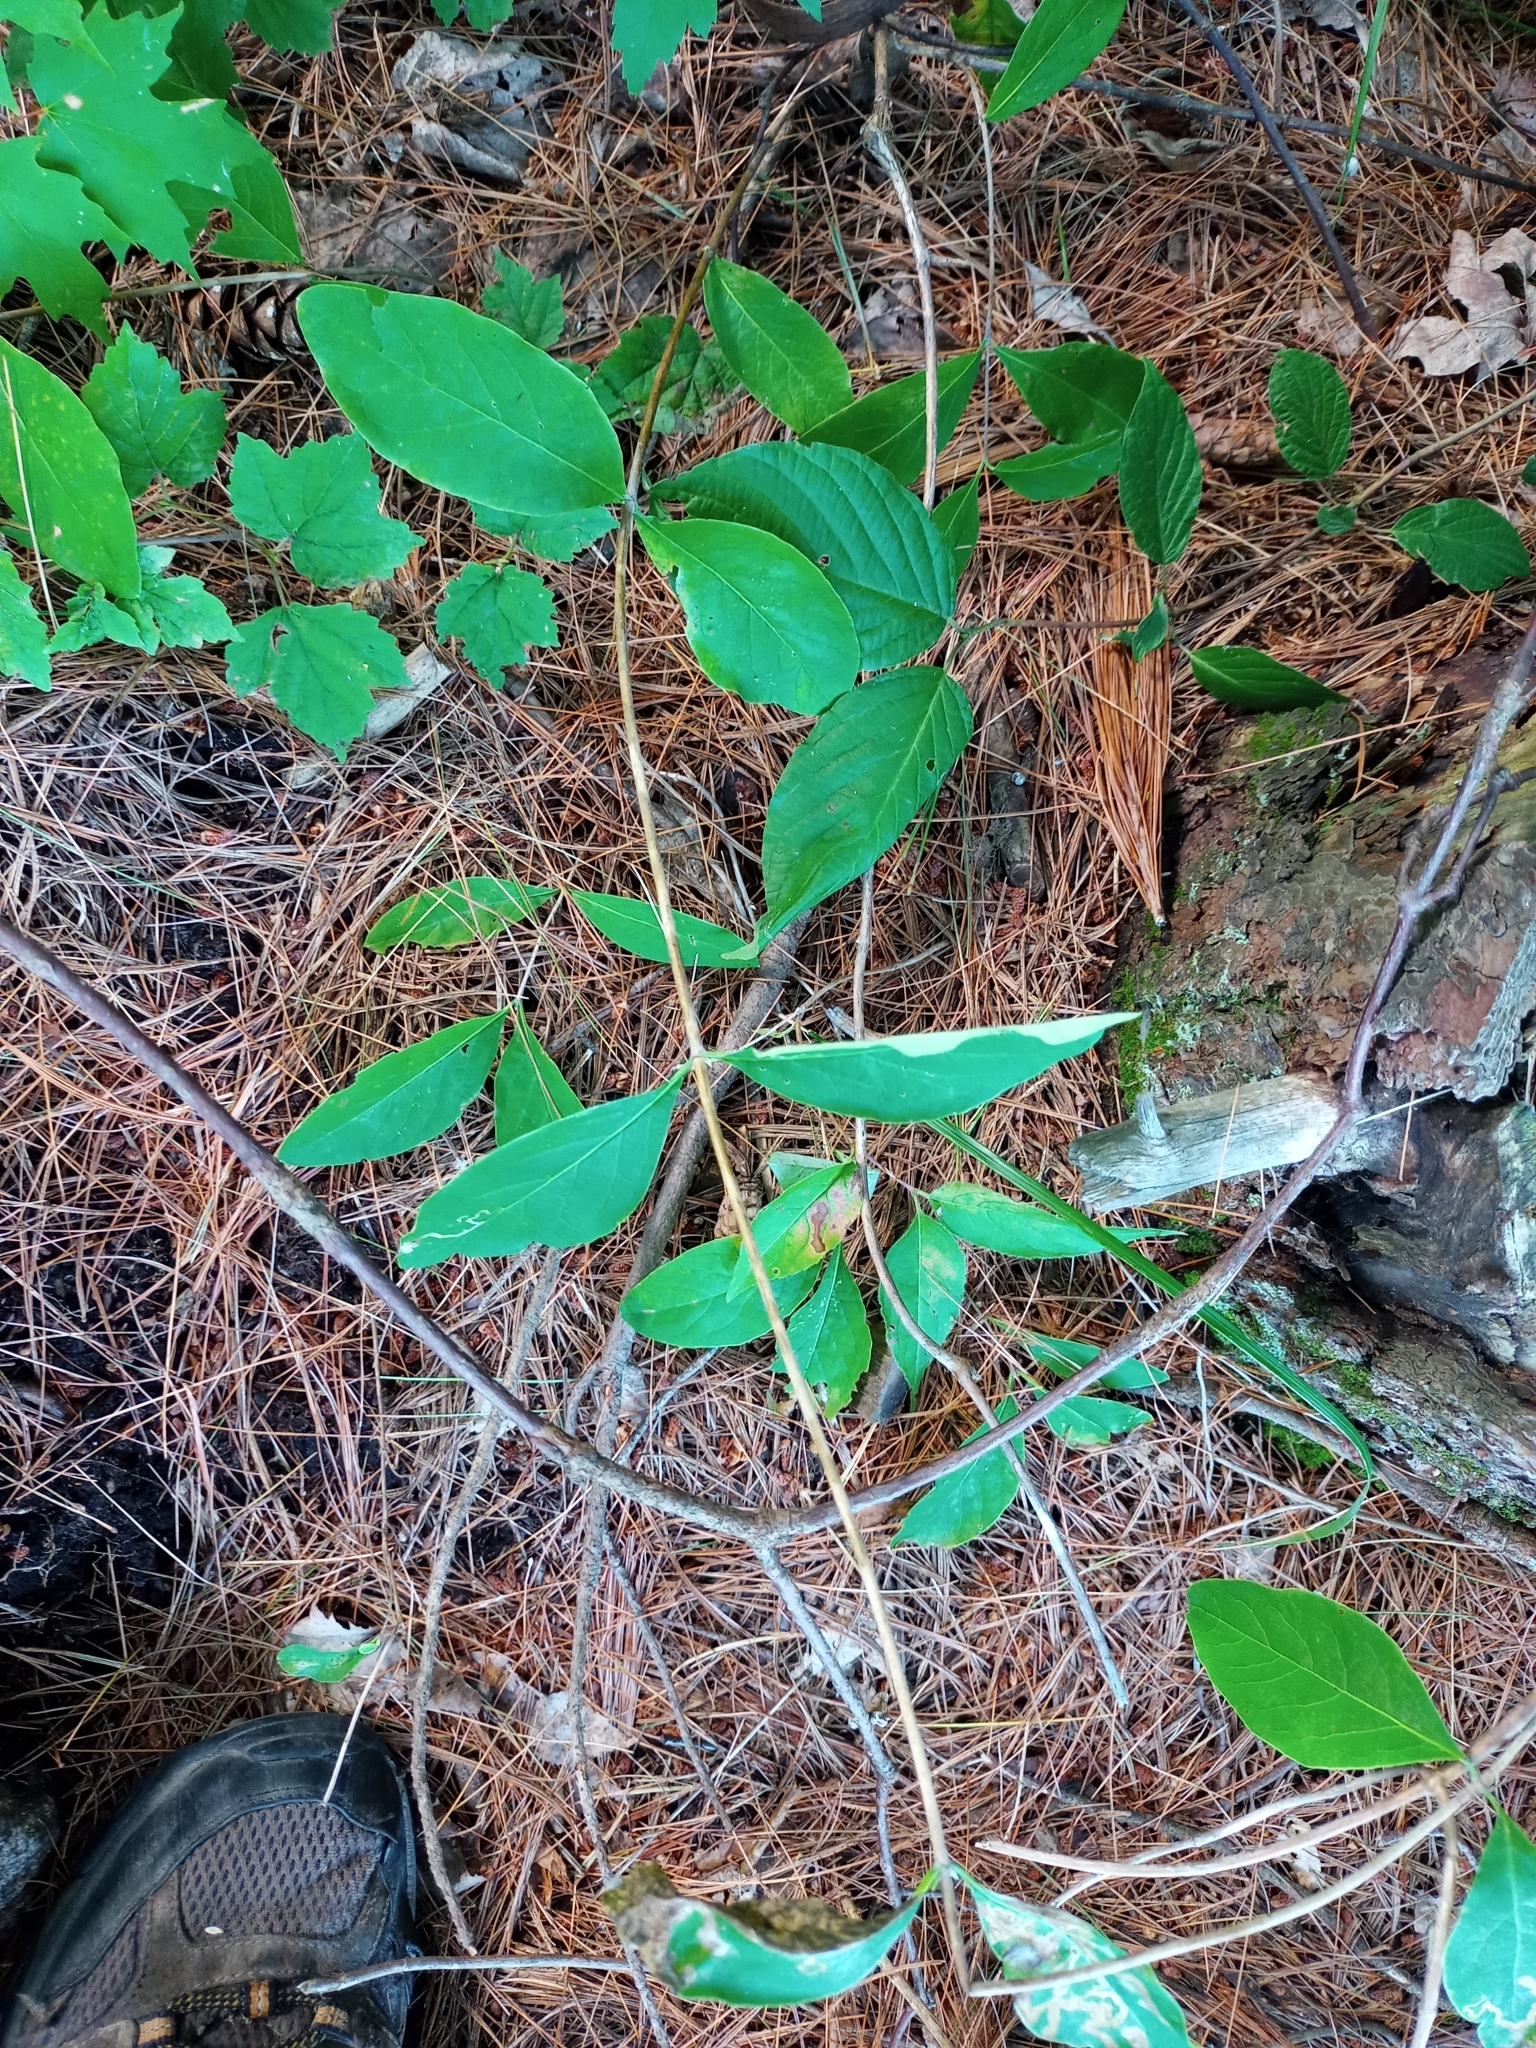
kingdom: Plantae
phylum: Tracheophyta
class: Magnoliopsida
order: Dipsacales
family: Caprifoliaceae
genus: Lonicera
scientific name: Lonicera dioica
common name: Limber honeysuckle
